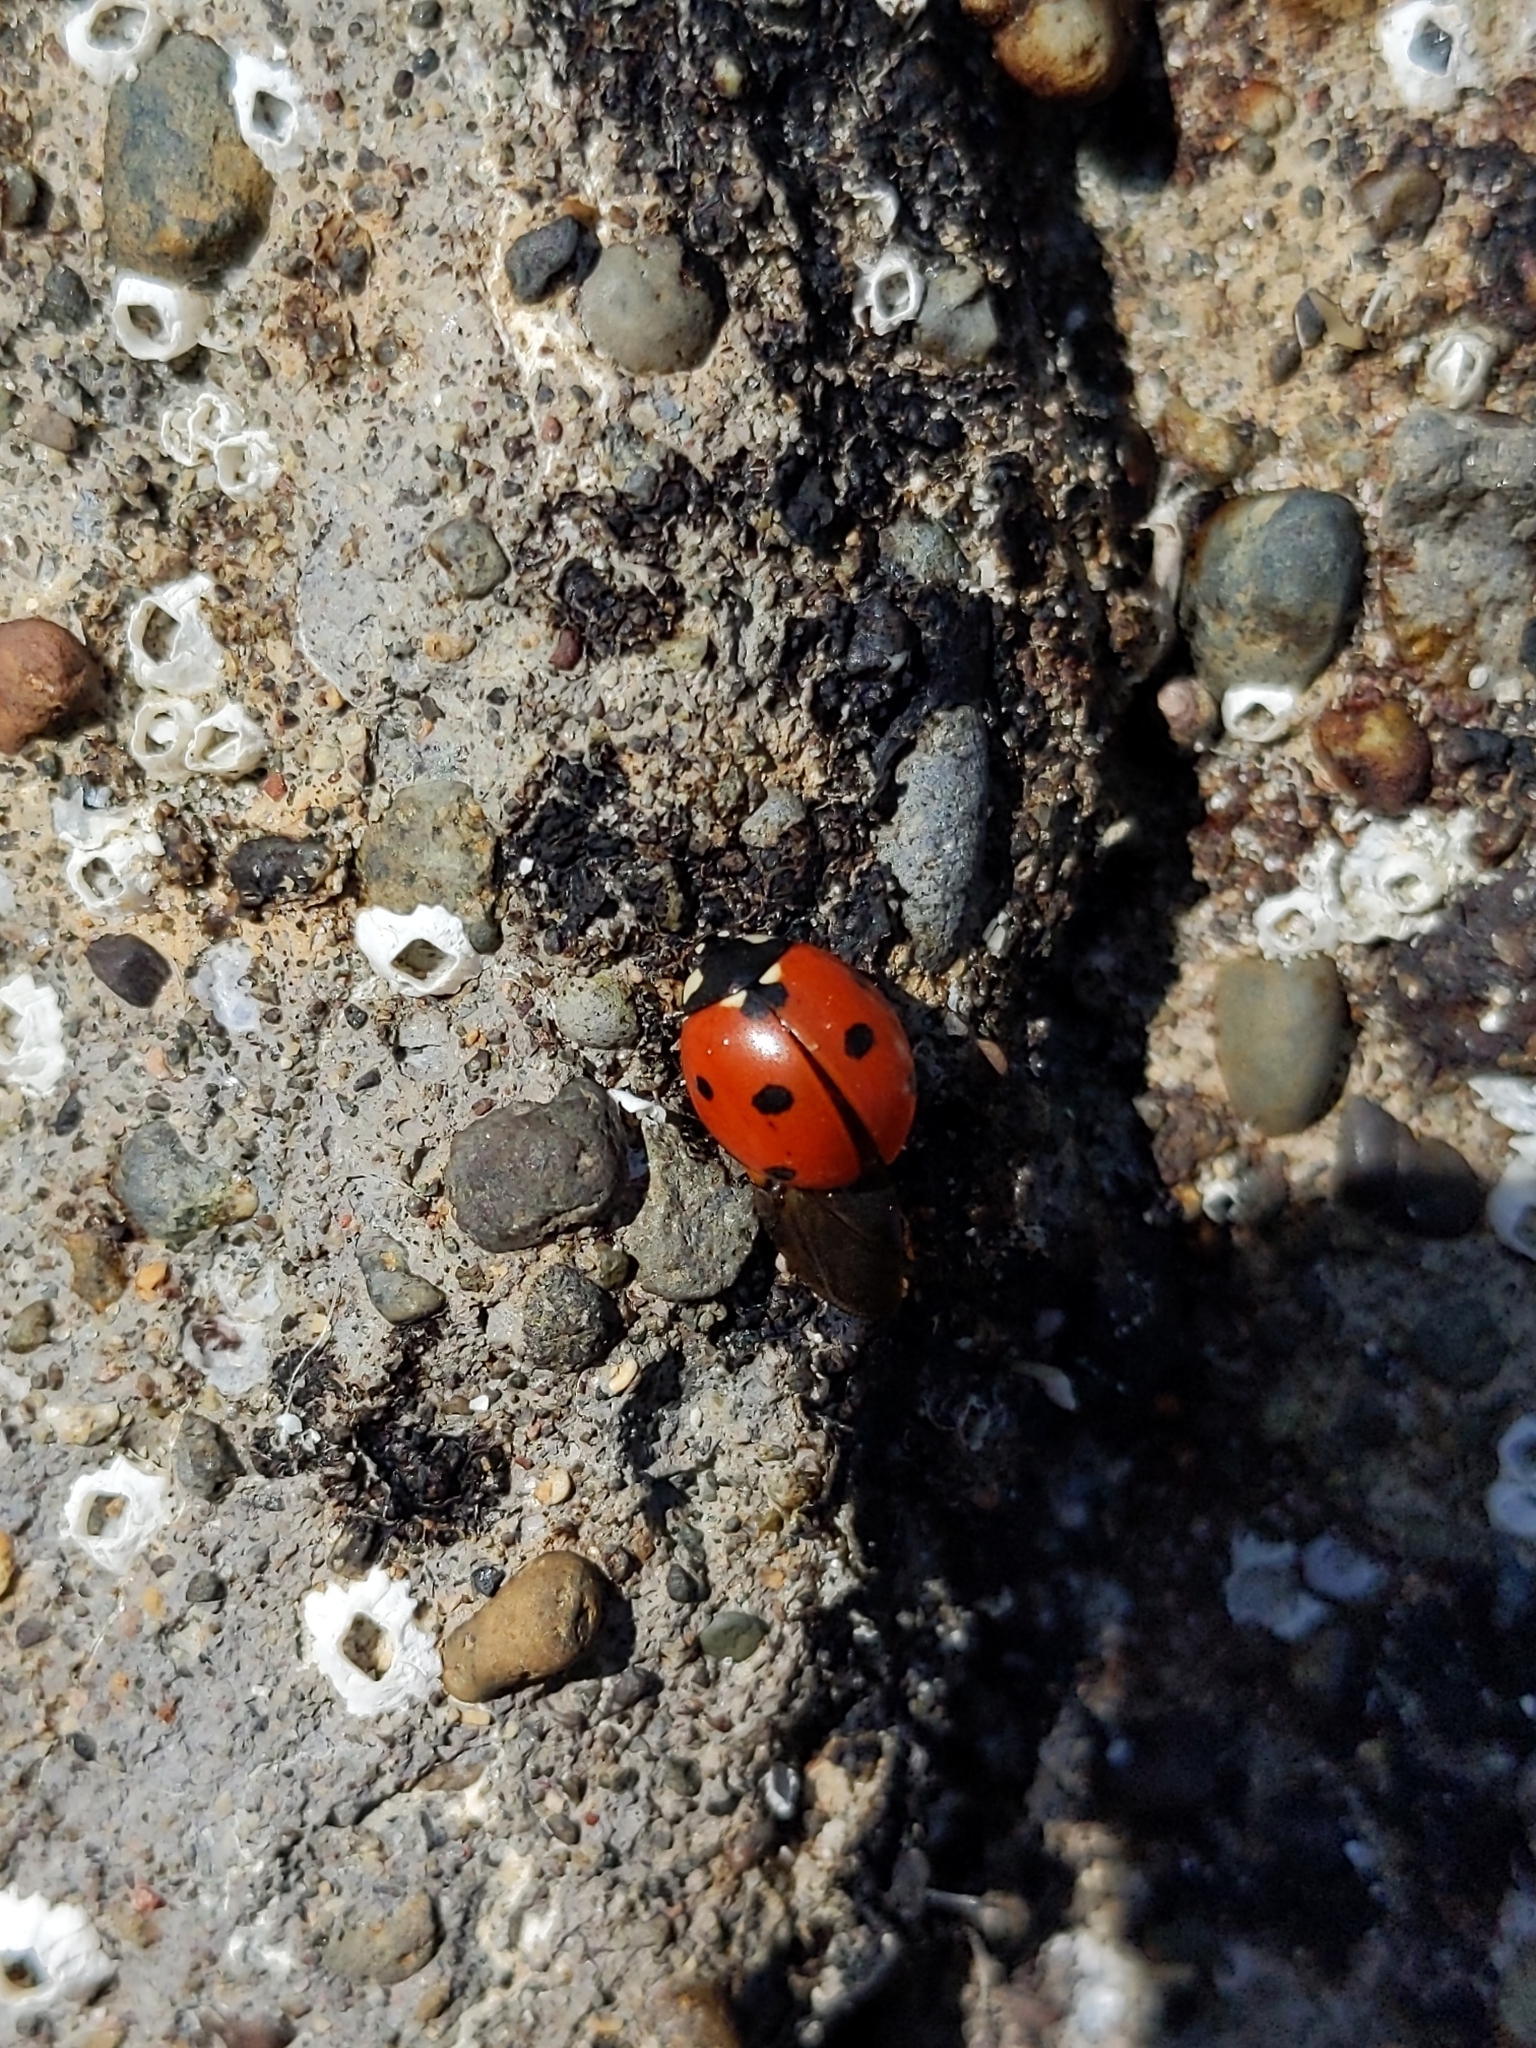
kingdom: Animalia
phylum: Arthropoda
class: Insecta
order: Coleoptera
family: Coccinellidae
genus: Coccinella
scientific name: Coccinella septempunctata
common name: Sevenspotted lady beetle
